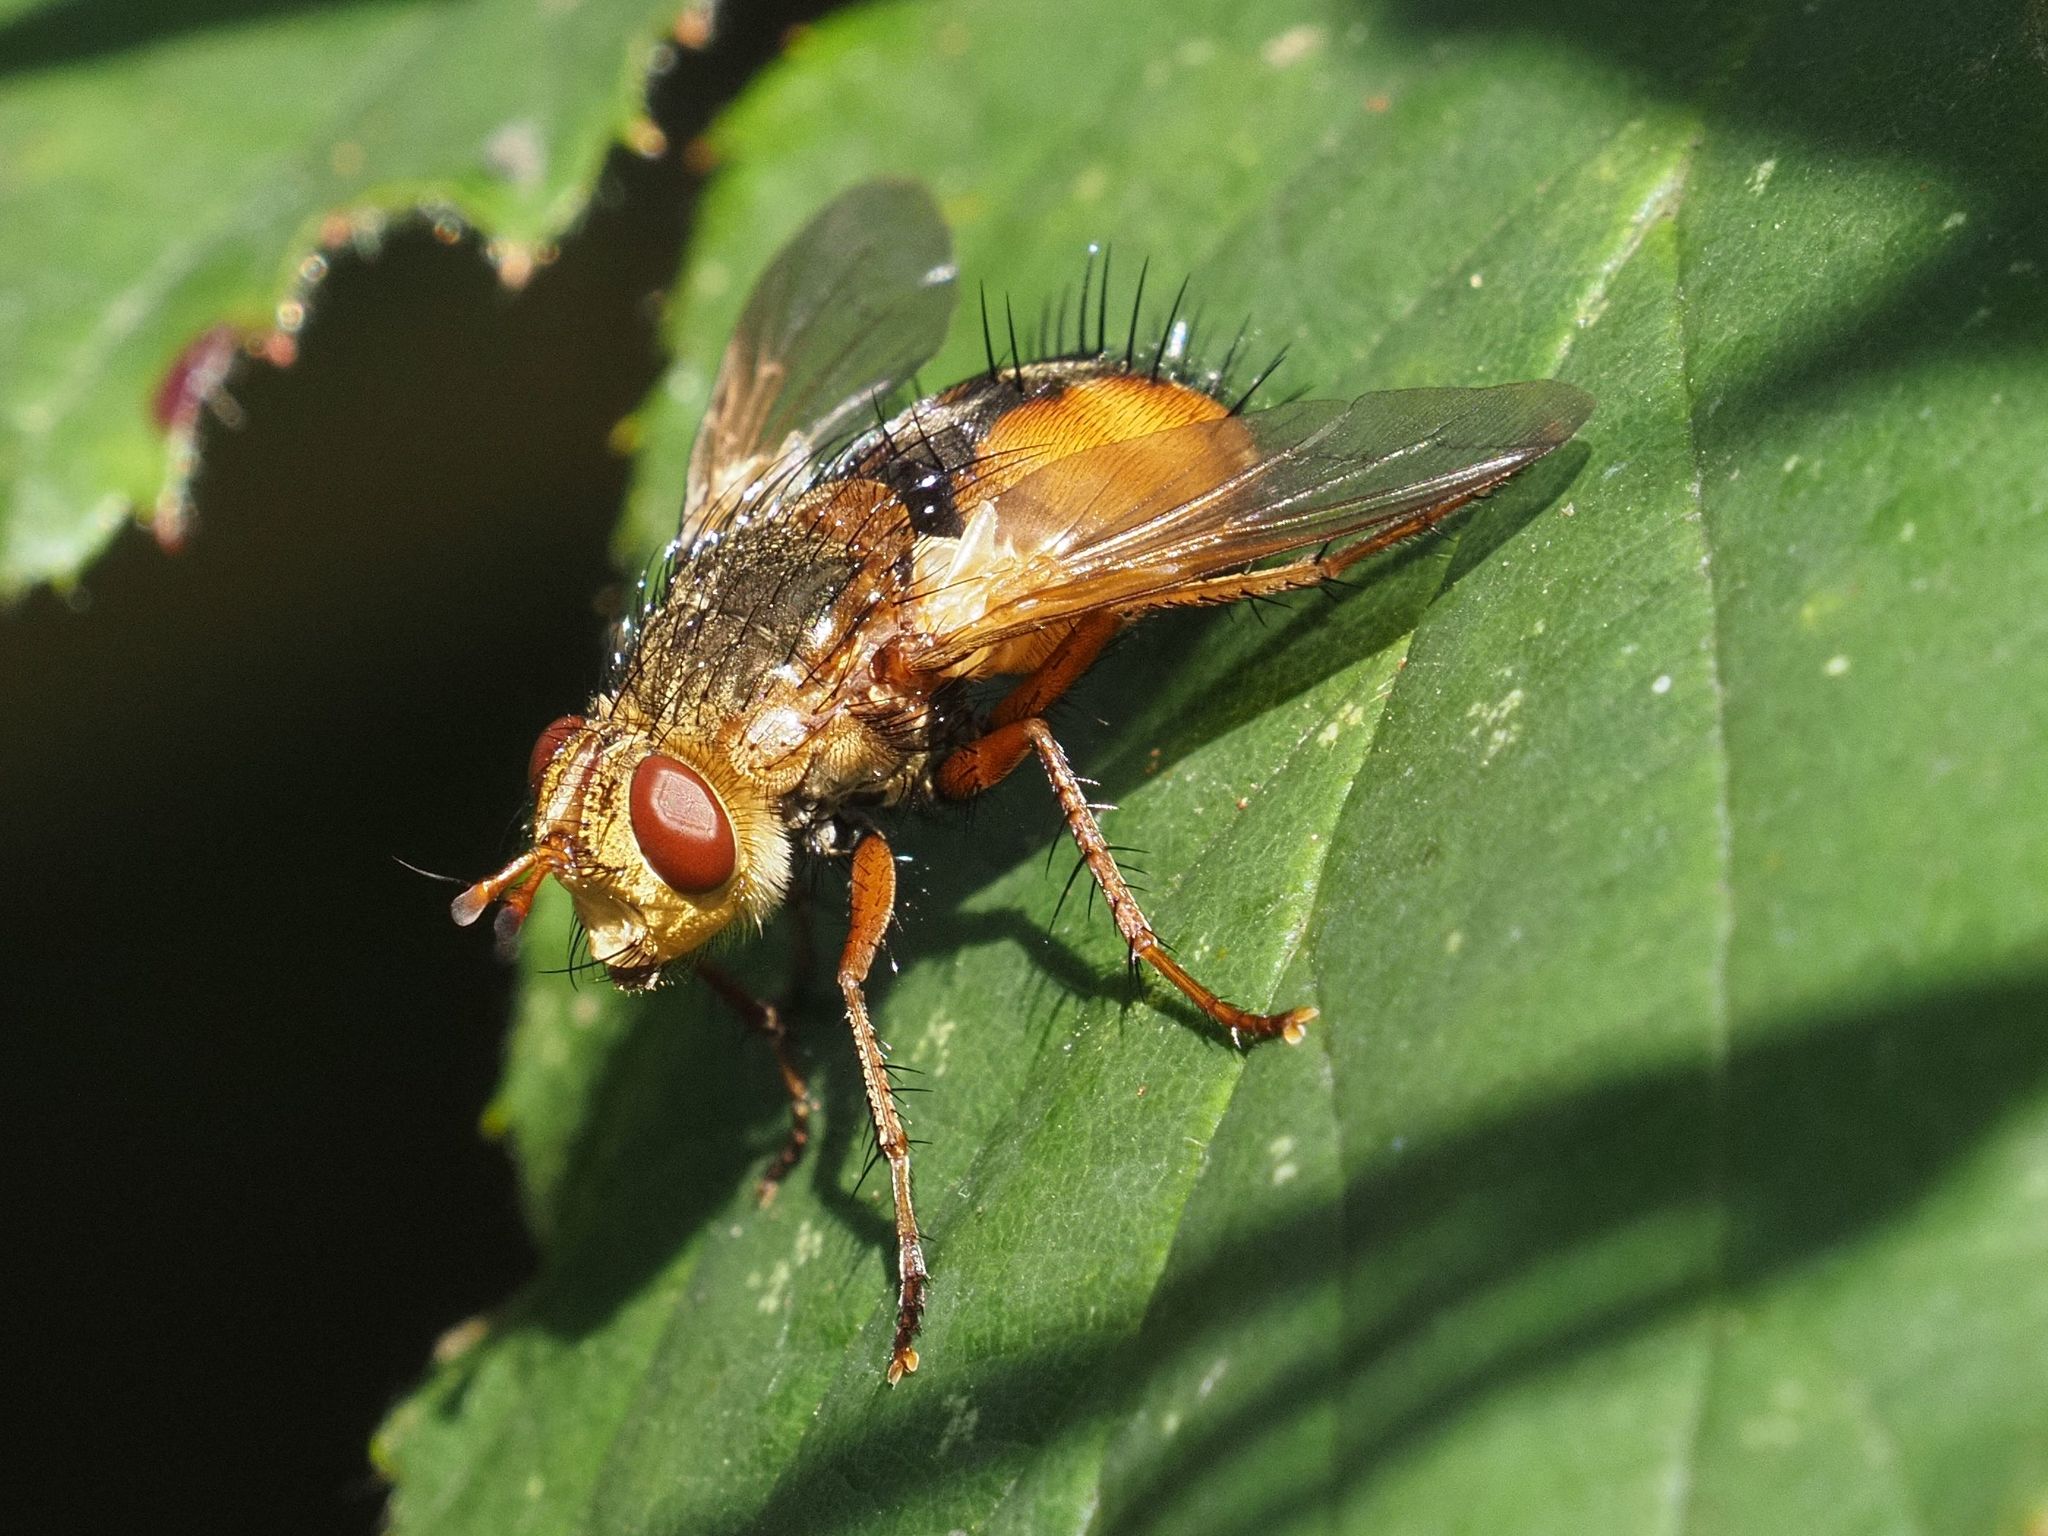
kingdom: Animalia
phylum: Arthropoda
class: Insecta
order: Diptera
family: Tachinidae
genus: Tachina
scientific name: Tachina fera
